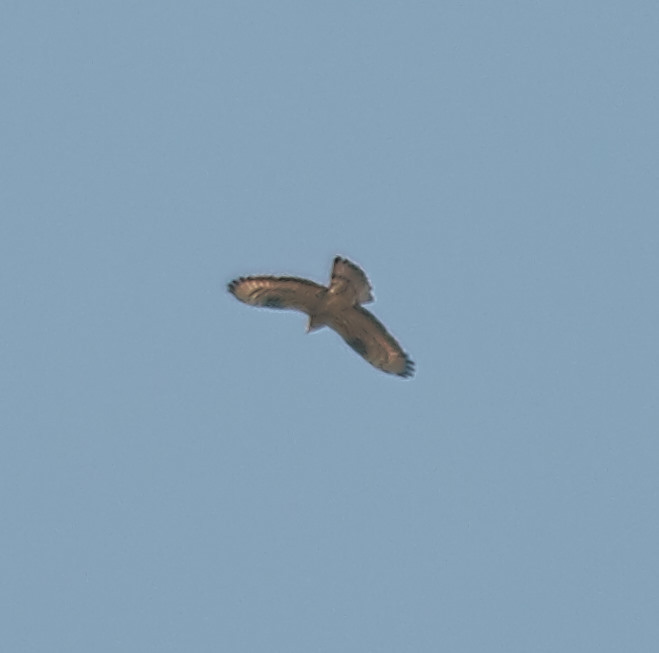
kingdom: Animalia
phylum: Chordata
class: Aves
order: Accipitriformes
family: Accipitridae
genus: Pernis
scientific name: Pernis apivorus
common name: European honey buzzard
